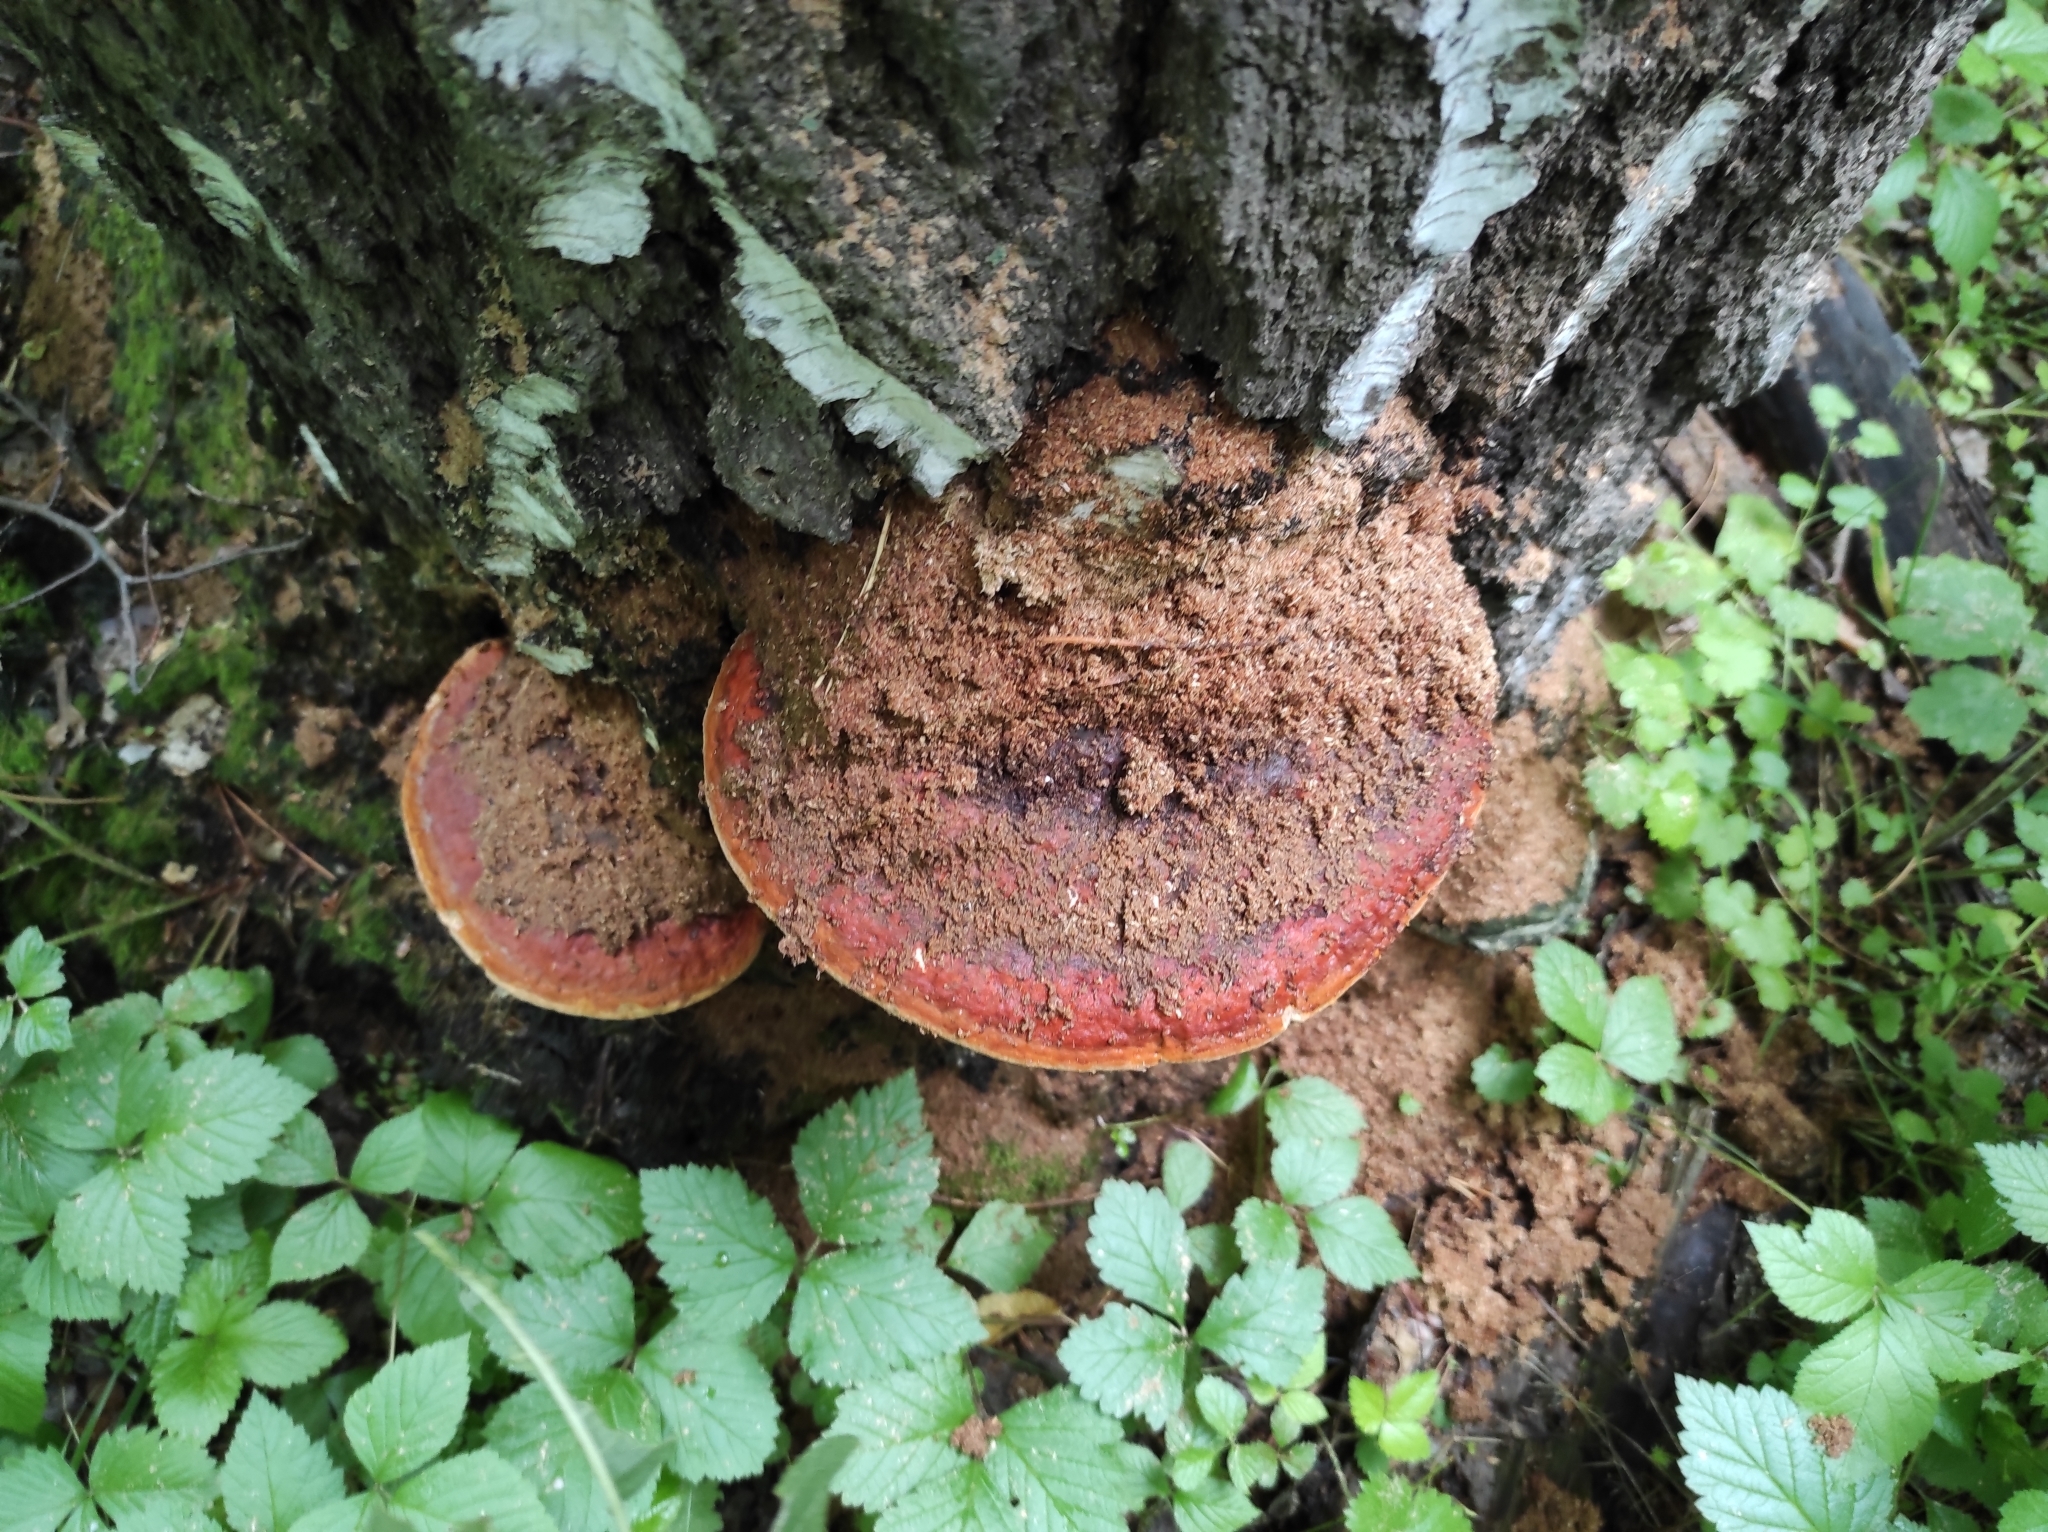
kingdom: Fungi
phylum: Basidiomycota
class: Agaricomycetes
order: Polyporales
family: Fomitopsidaceae
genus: Fomitopsis
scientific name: Fomitopsis pinicola
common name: Red-belted bracket
